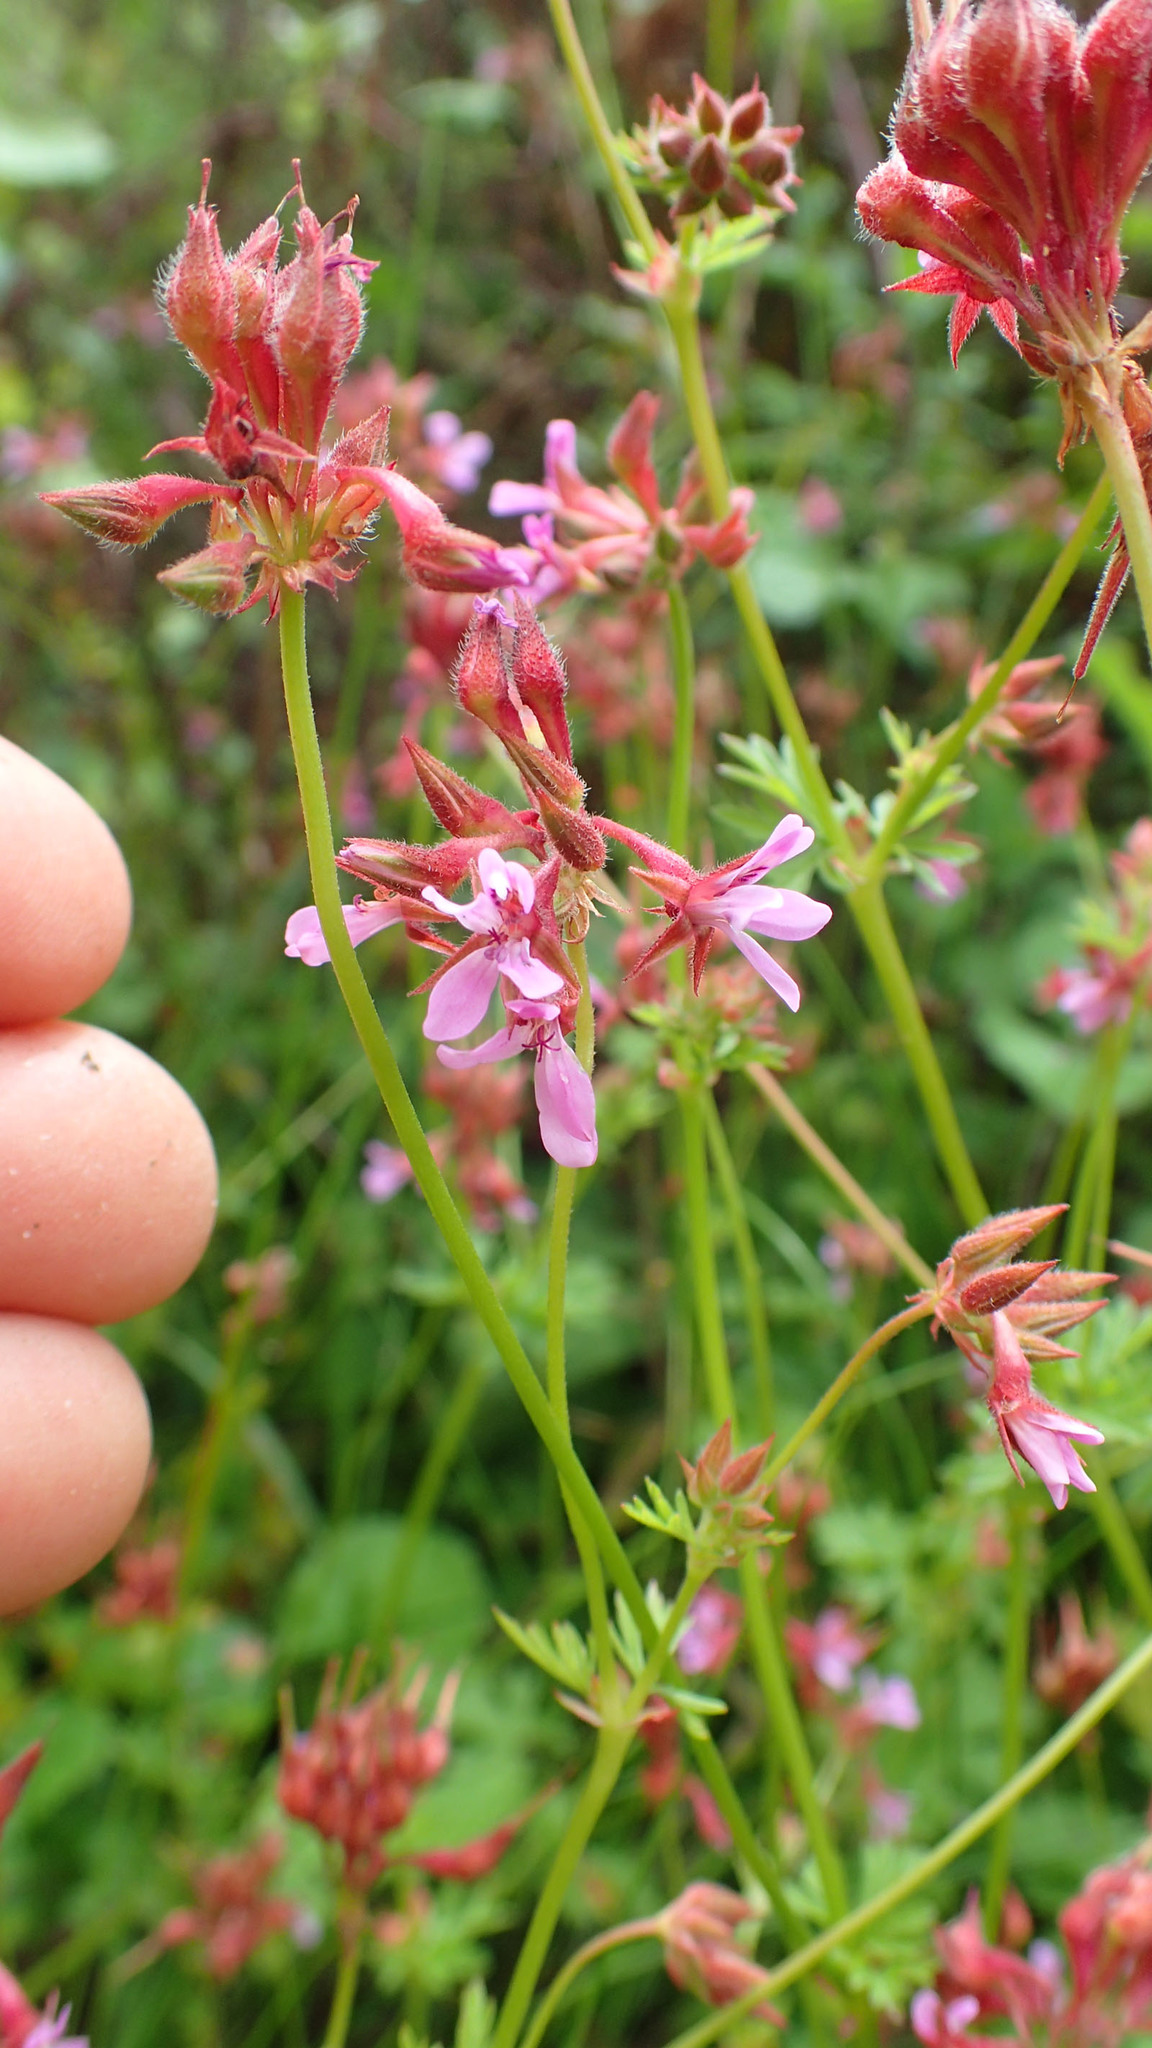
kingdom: Plantae
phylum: Tracheophyta
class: Magnoliopsida
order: Geraniales
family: Geraniaceae
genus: Pelargonium
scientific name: Pelargonium grossularioides
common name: Gooseberry geranium
